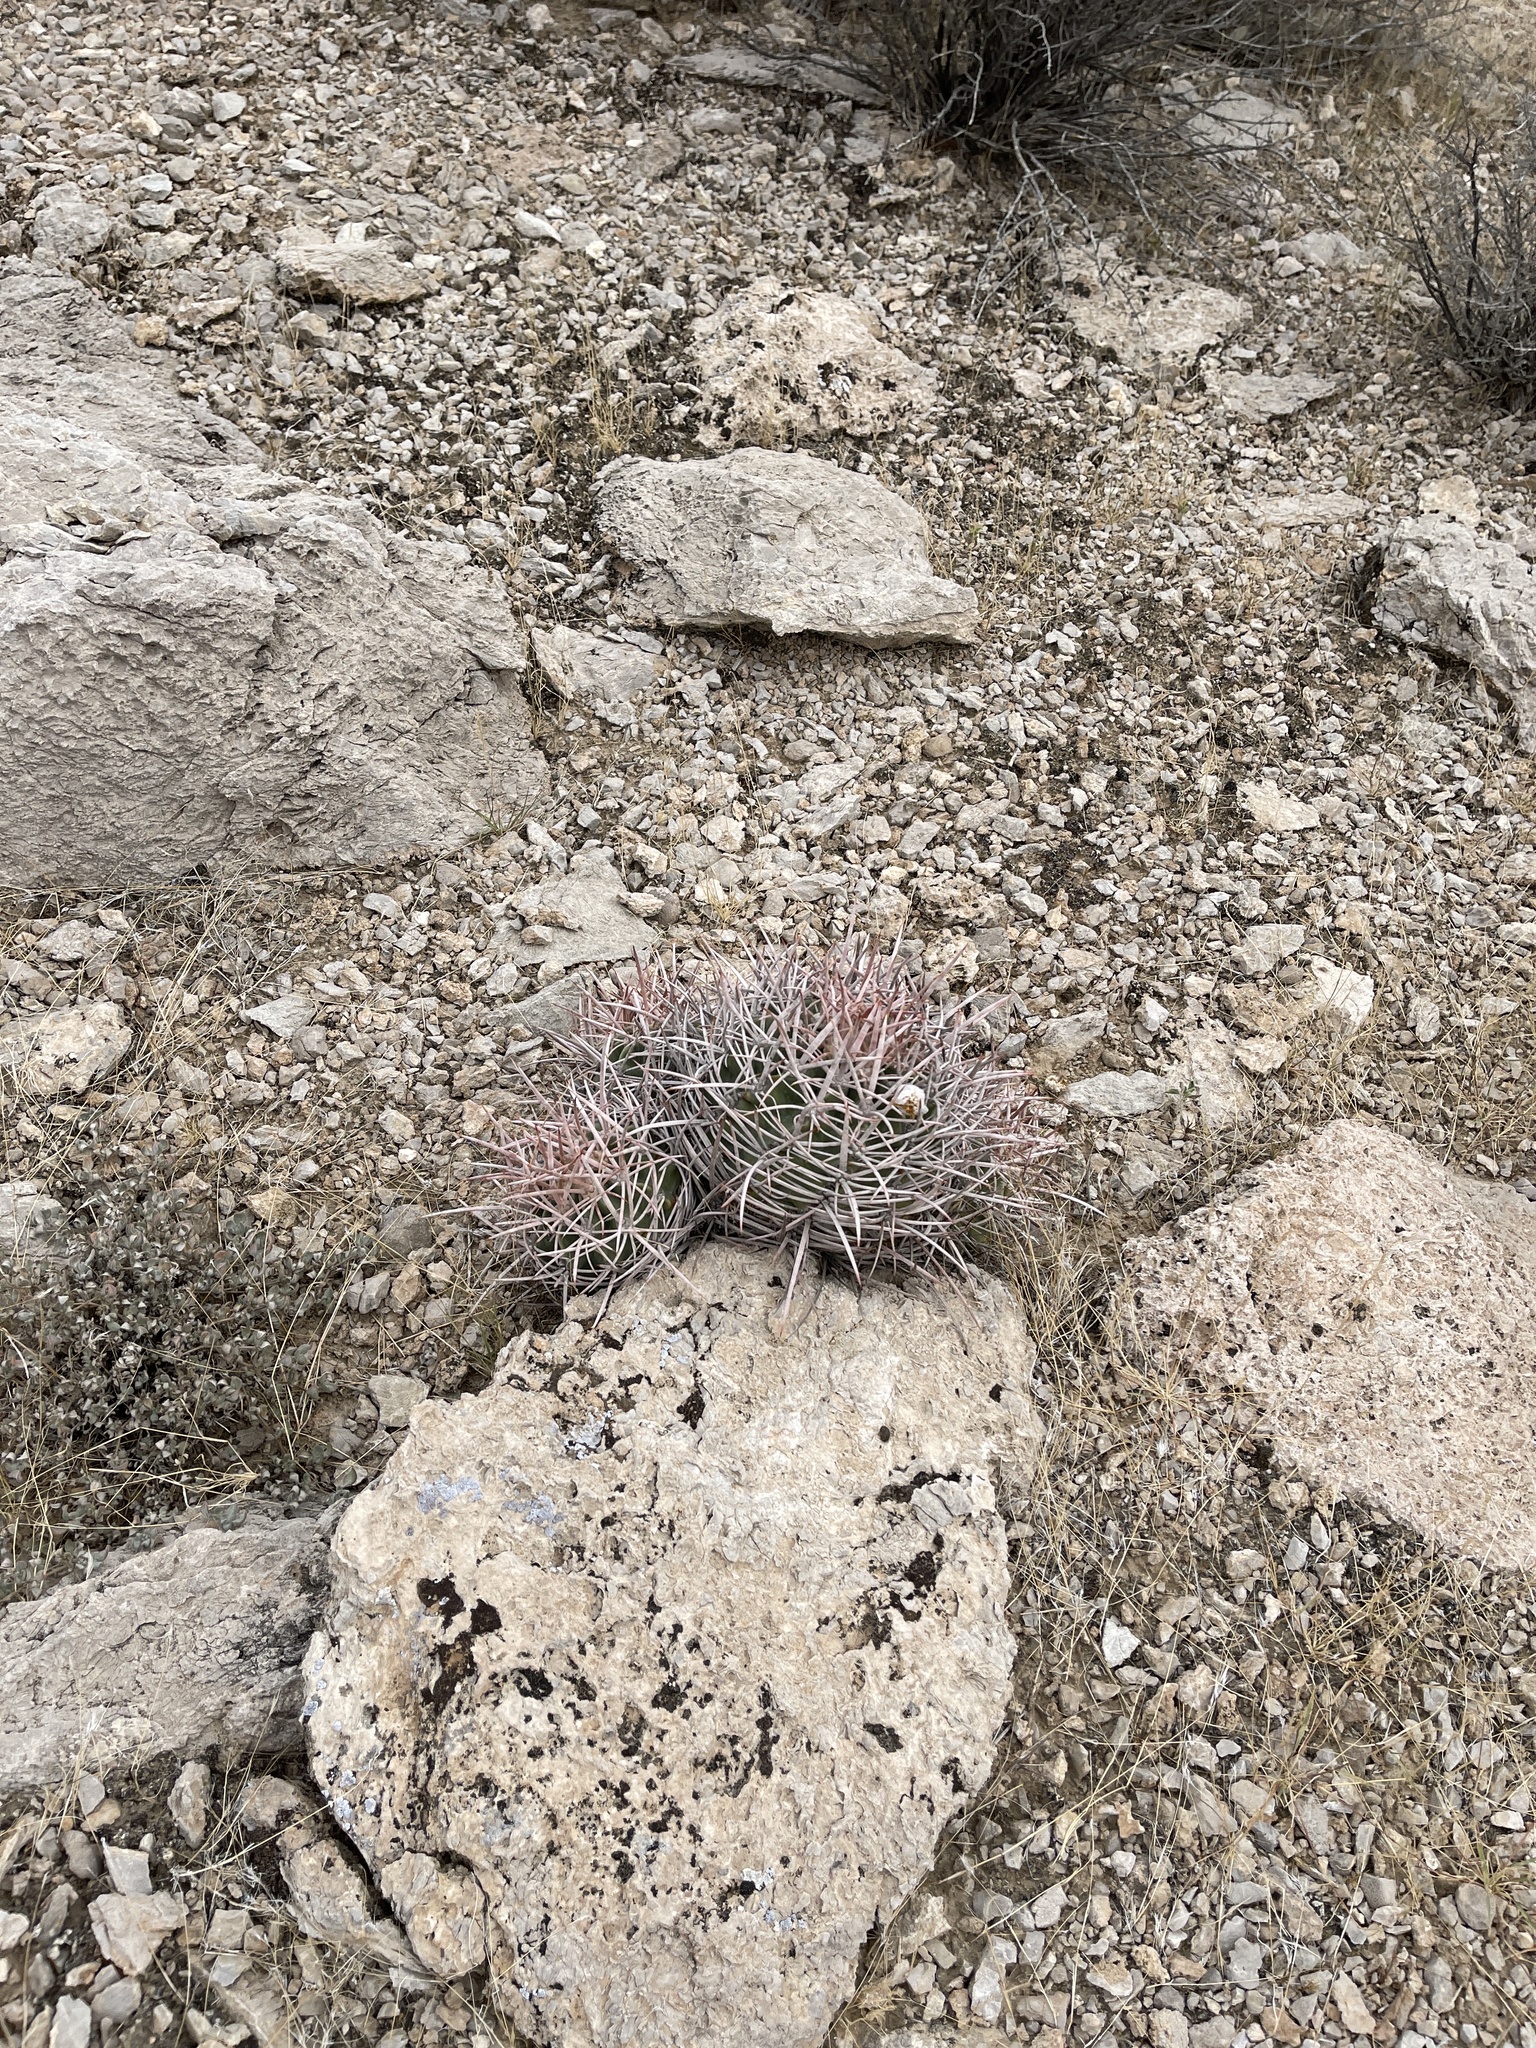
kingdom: Plantae
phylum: Tracheophyta
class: Magnoliopsida
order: Caryophyllales
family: Cactaceae
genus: Echinocactus
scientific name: Echinocactus polycephalus
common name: Cottontop cactus
